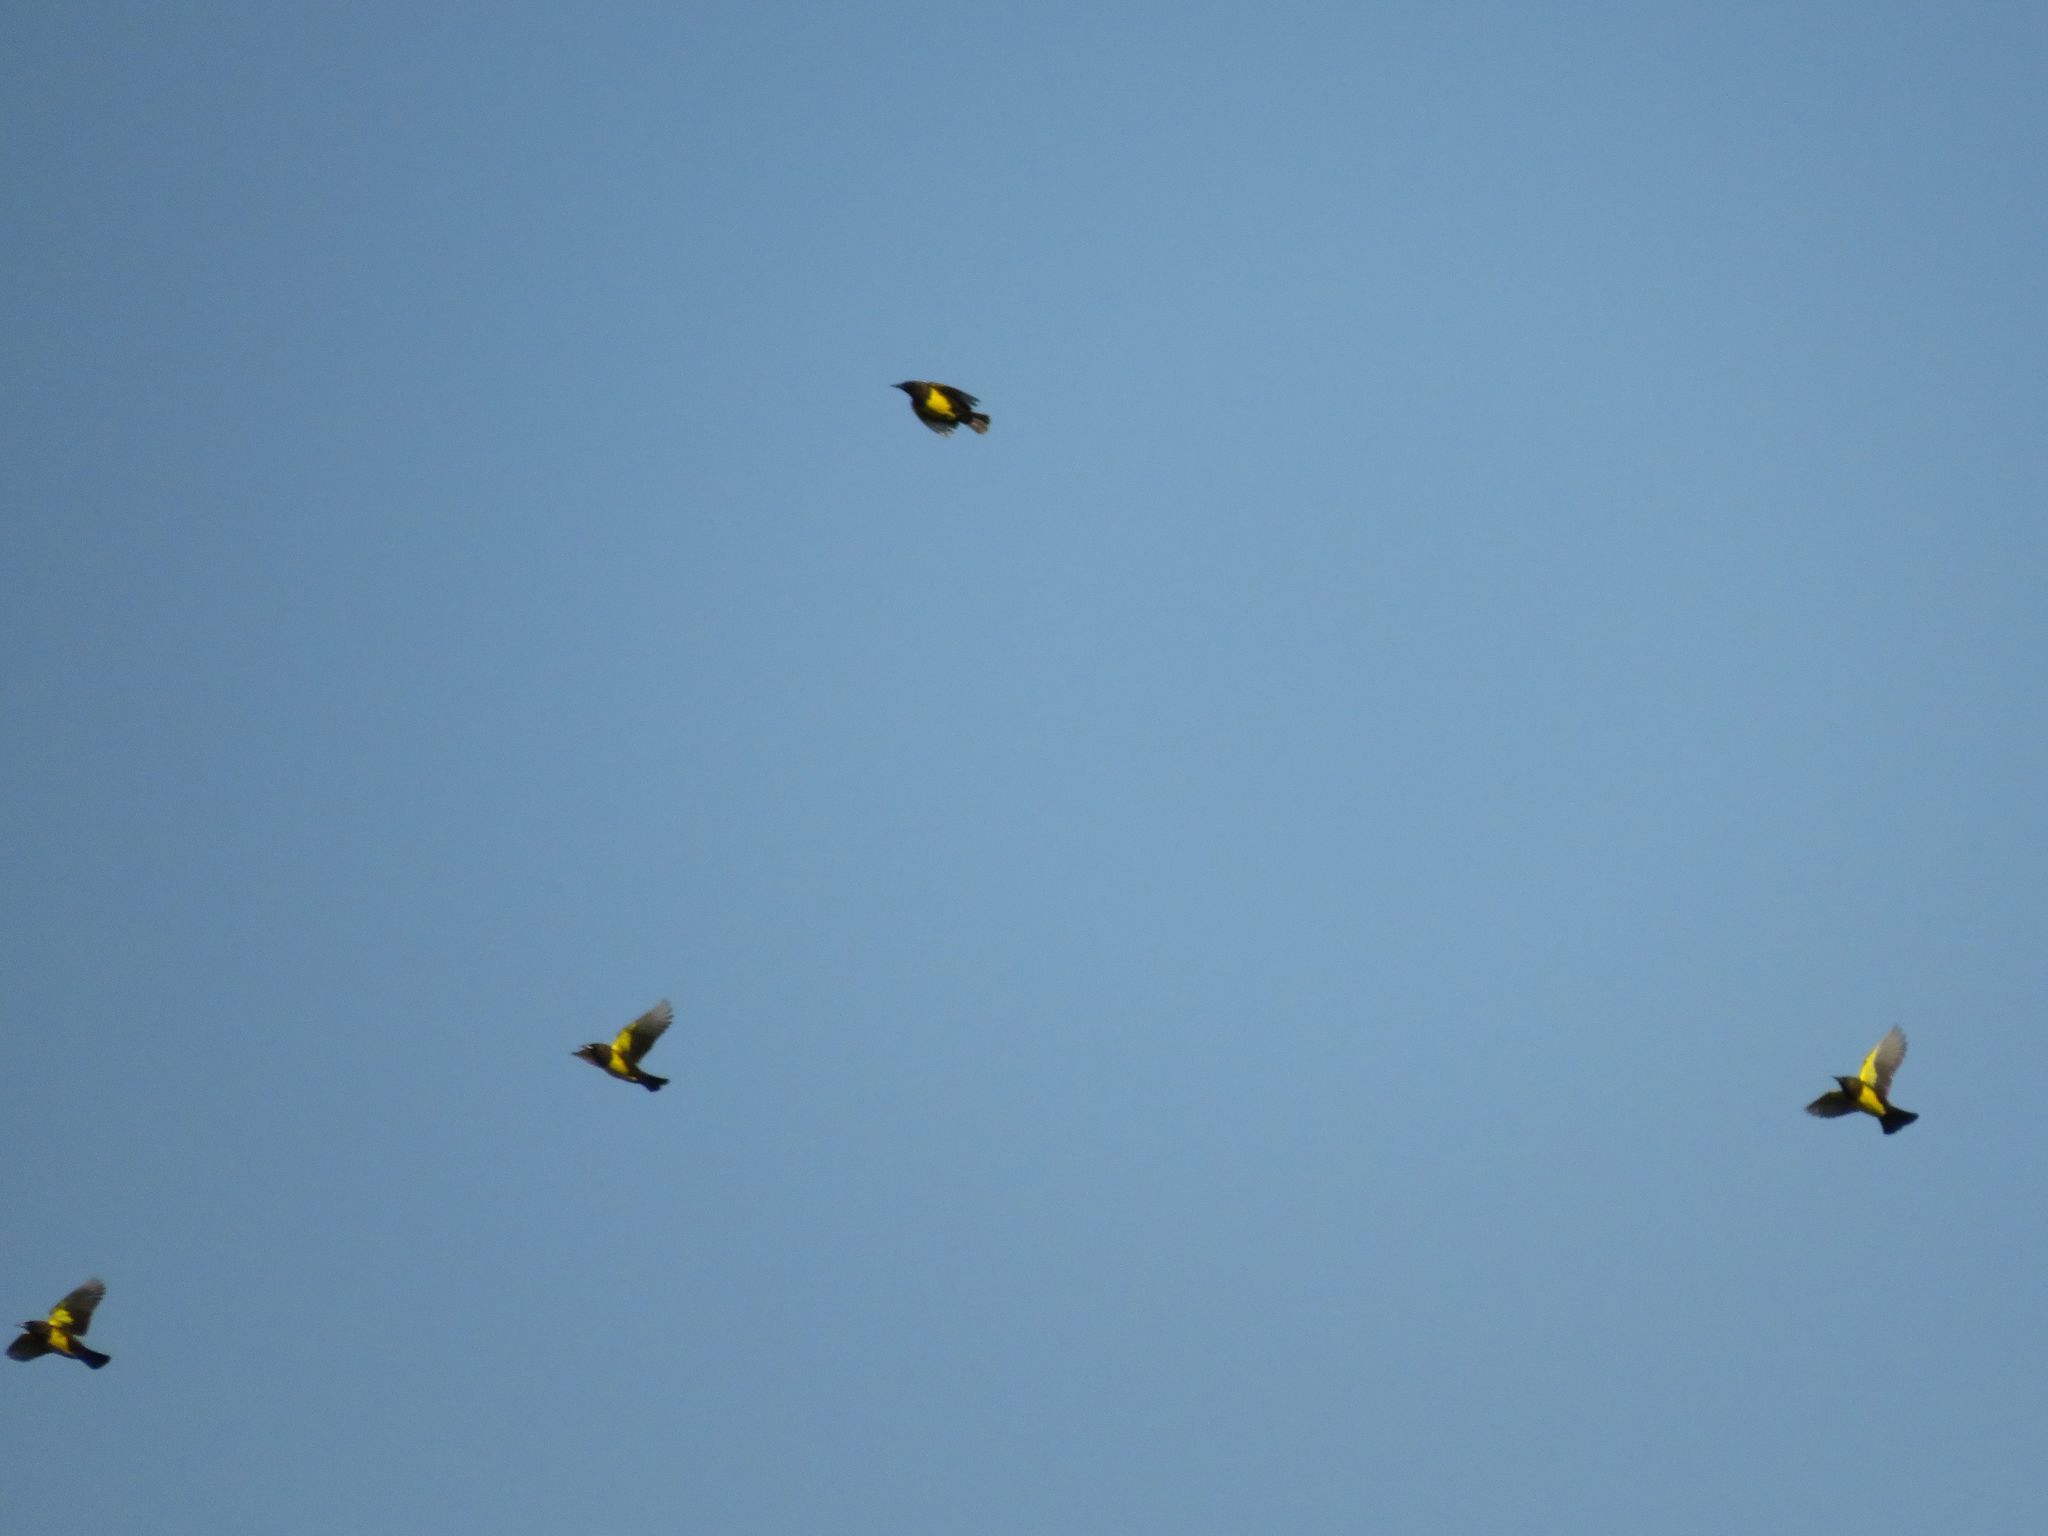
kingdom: Animalia
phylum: Chordata
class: Aves
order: Passeriformes
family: Icteridae
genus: Pseudoleistes
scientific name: Pseudoleistes virescens
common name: Brown-and-yellow marshbird
